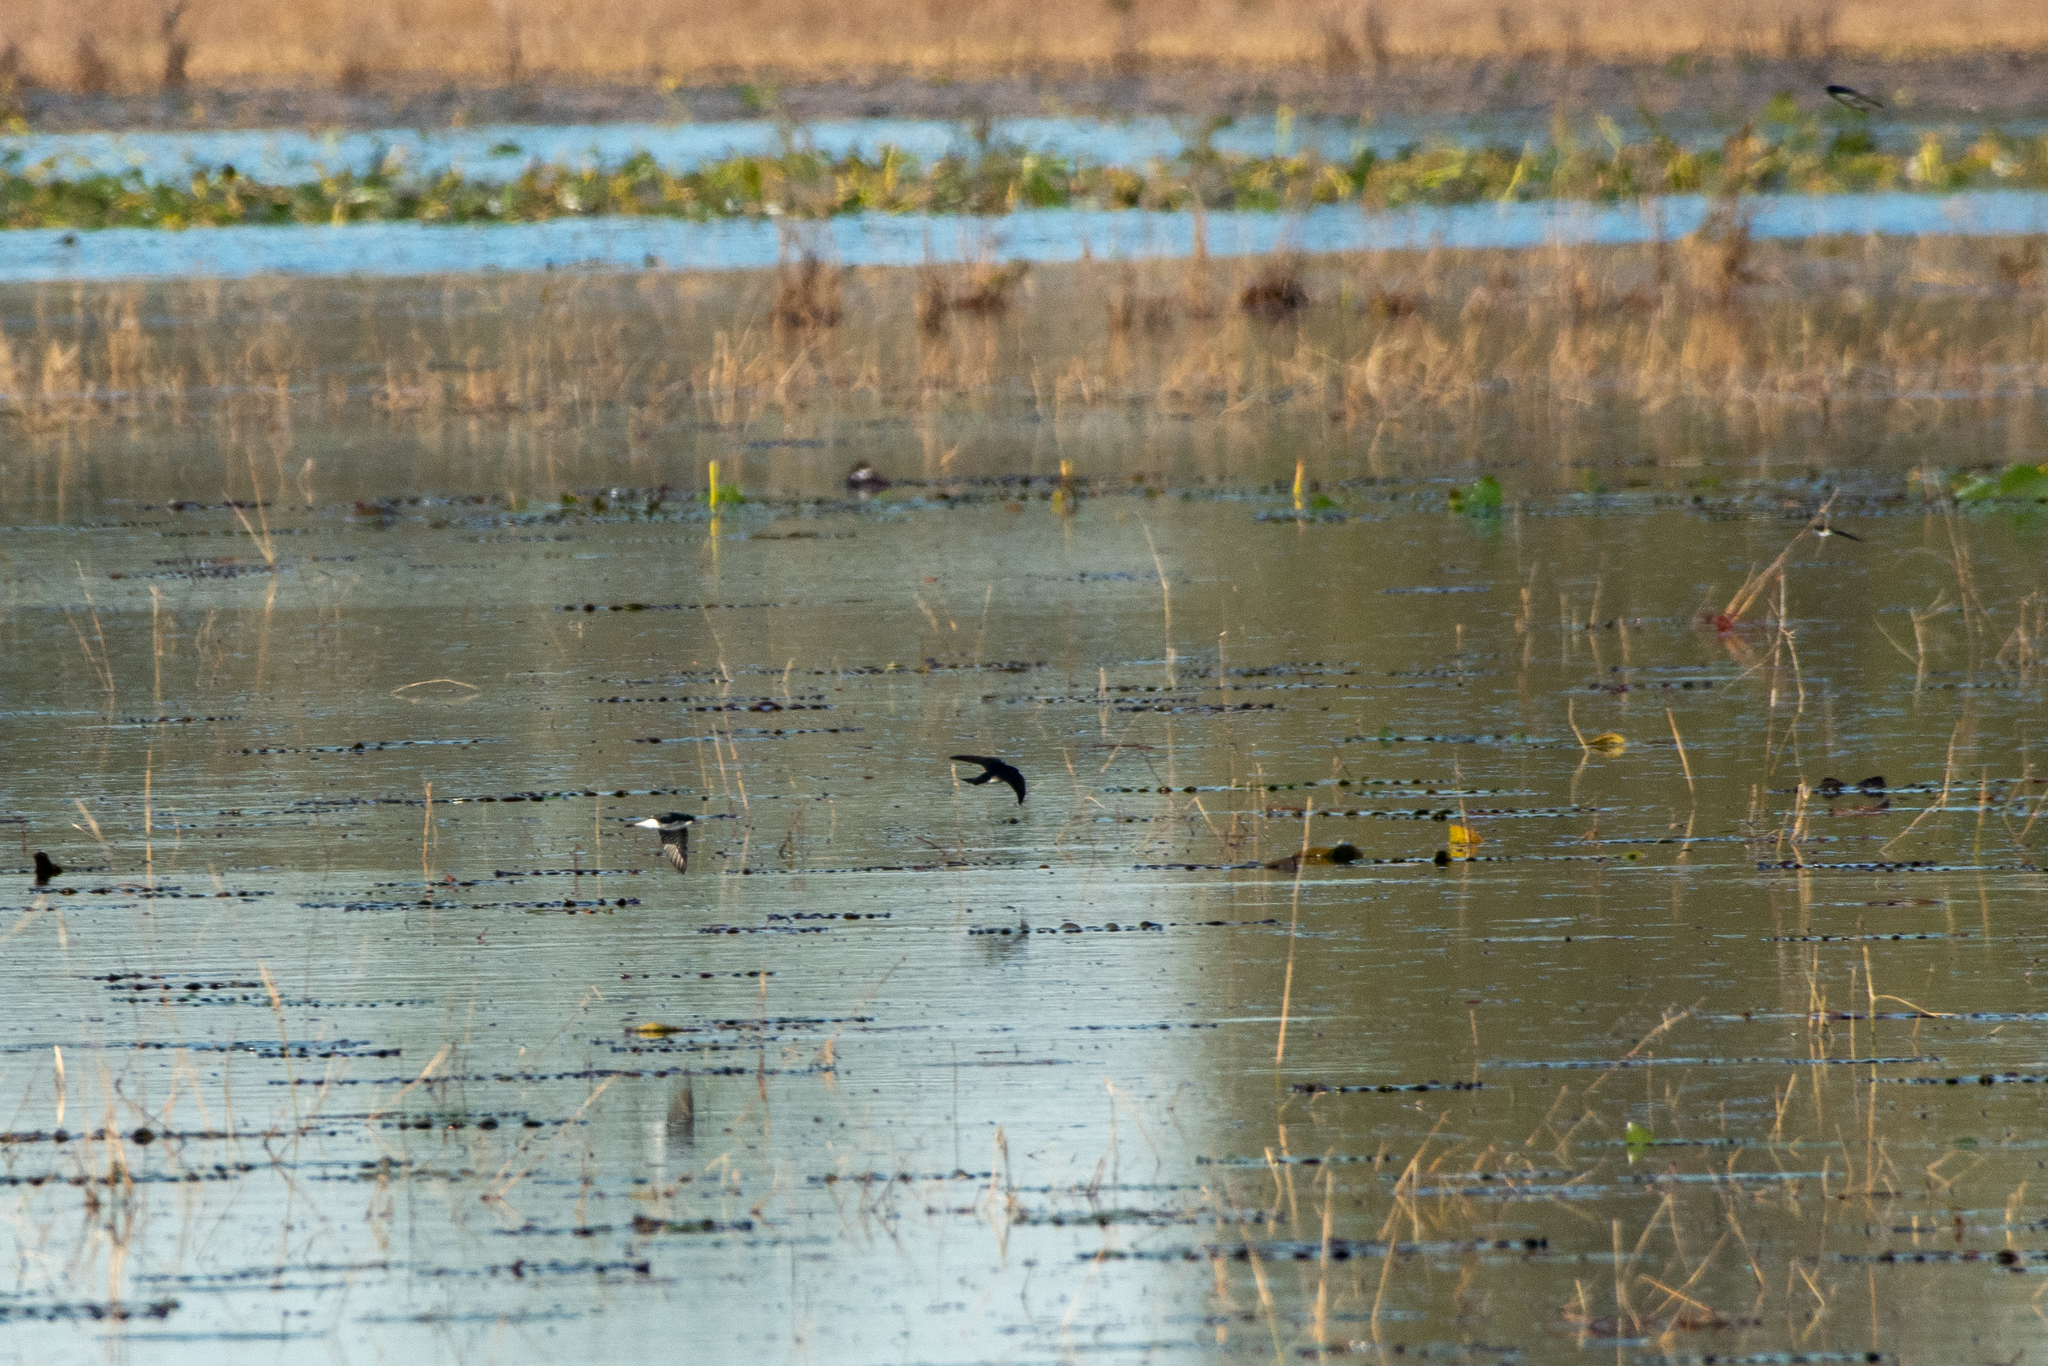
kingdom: Animalia
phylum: Chordata
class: Aves
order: Passeriformes
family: Hirundinidae
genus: Tachycineta
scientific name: Tachycineta bicolor
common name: Tree swallow
